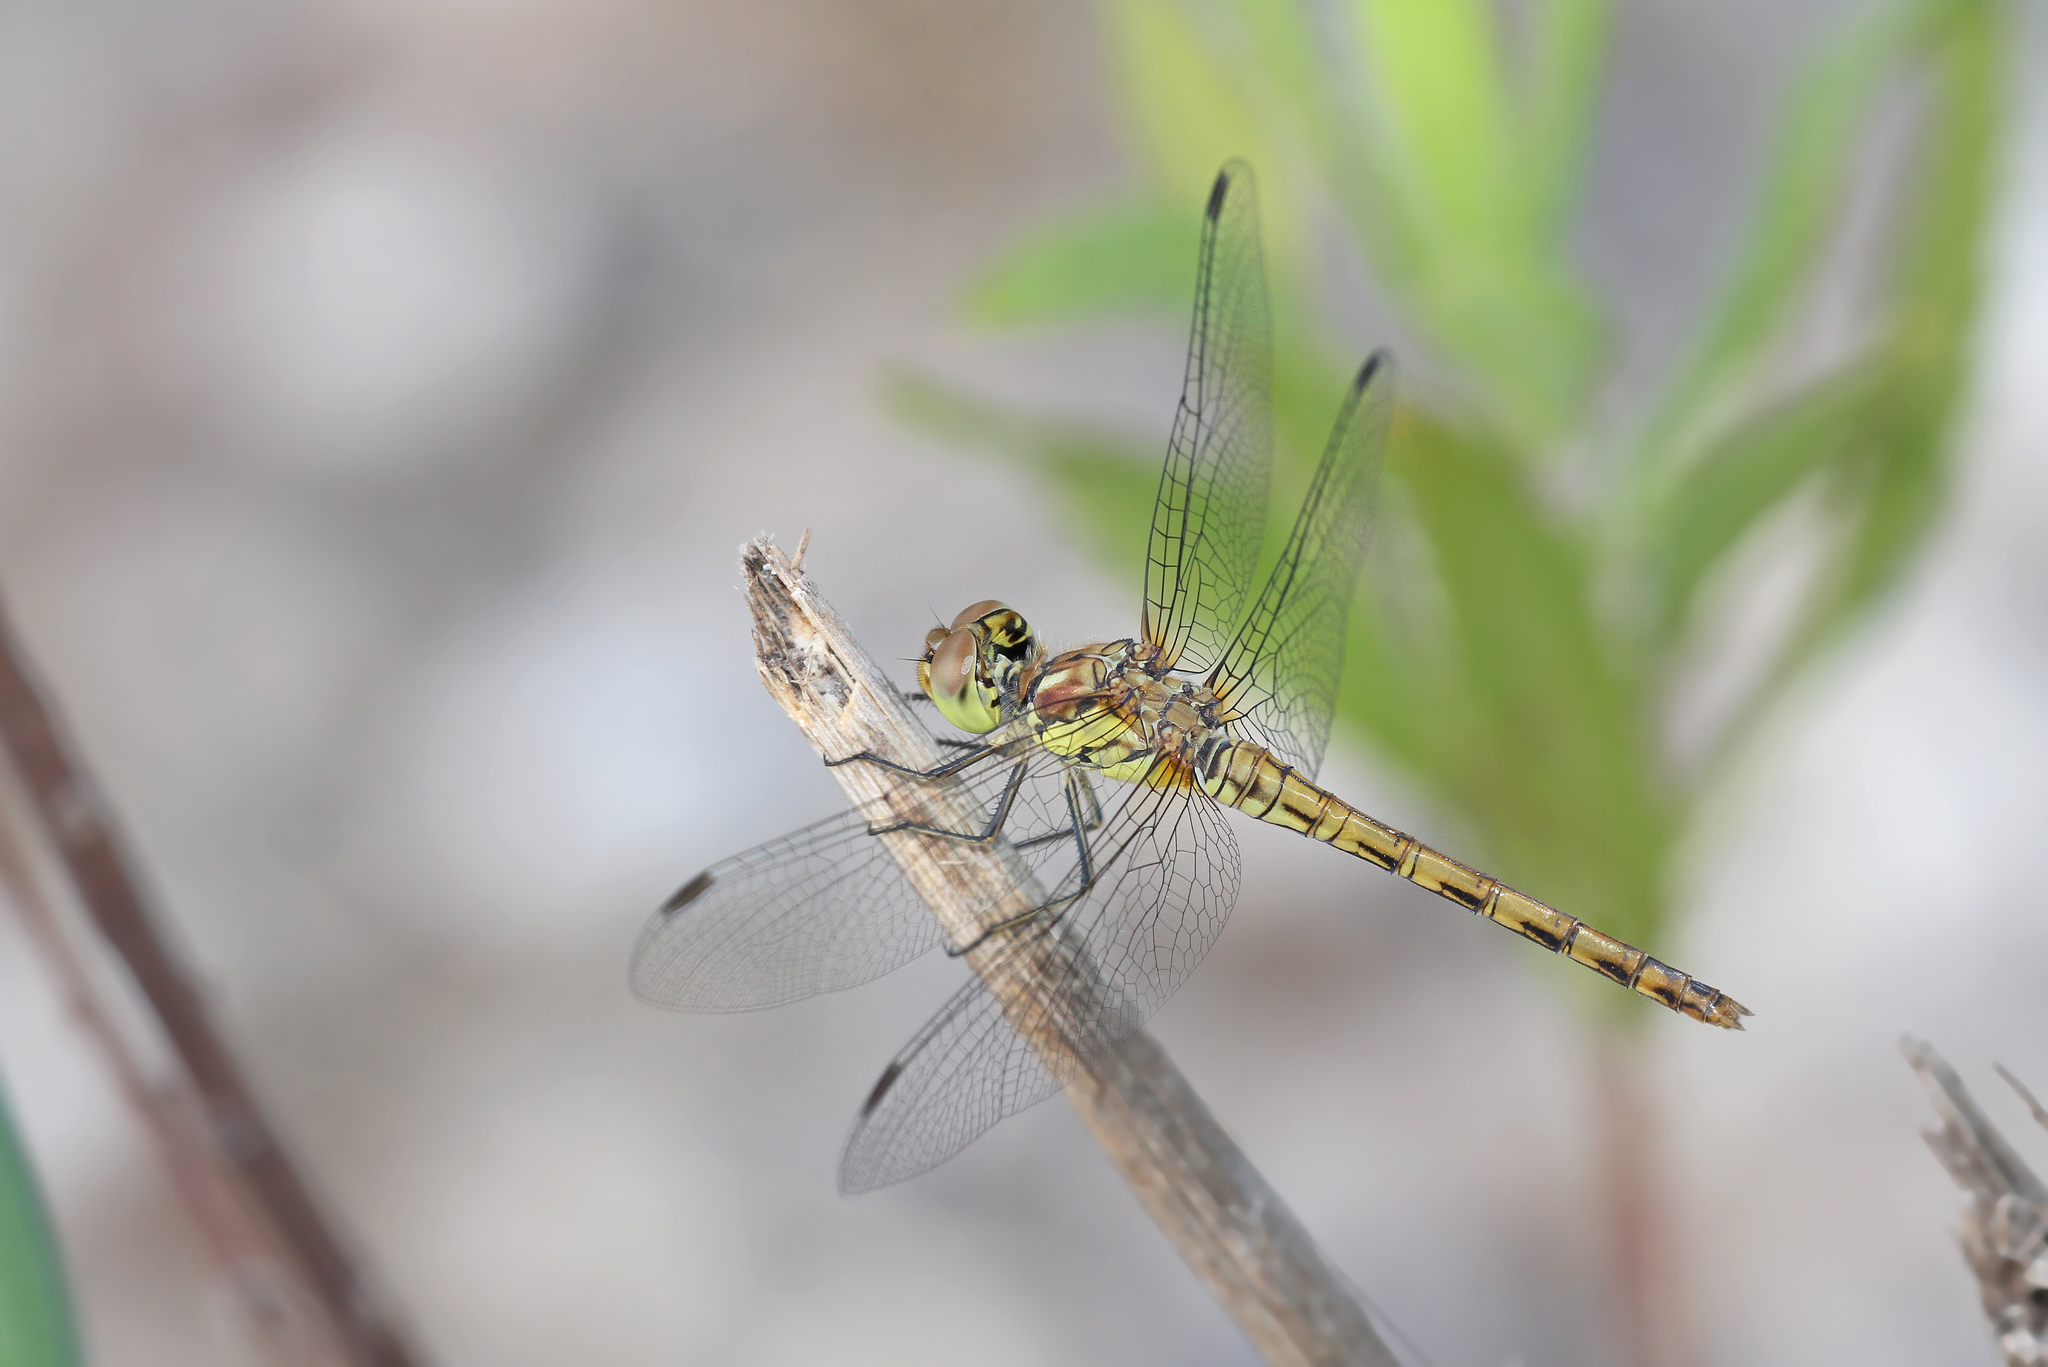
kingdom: Animalia
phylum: Arthropoda
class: Insecta
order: Odonata
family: Libellulidae
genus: Sympetrum
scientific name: Sympetrum striolatum
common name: Common darter
